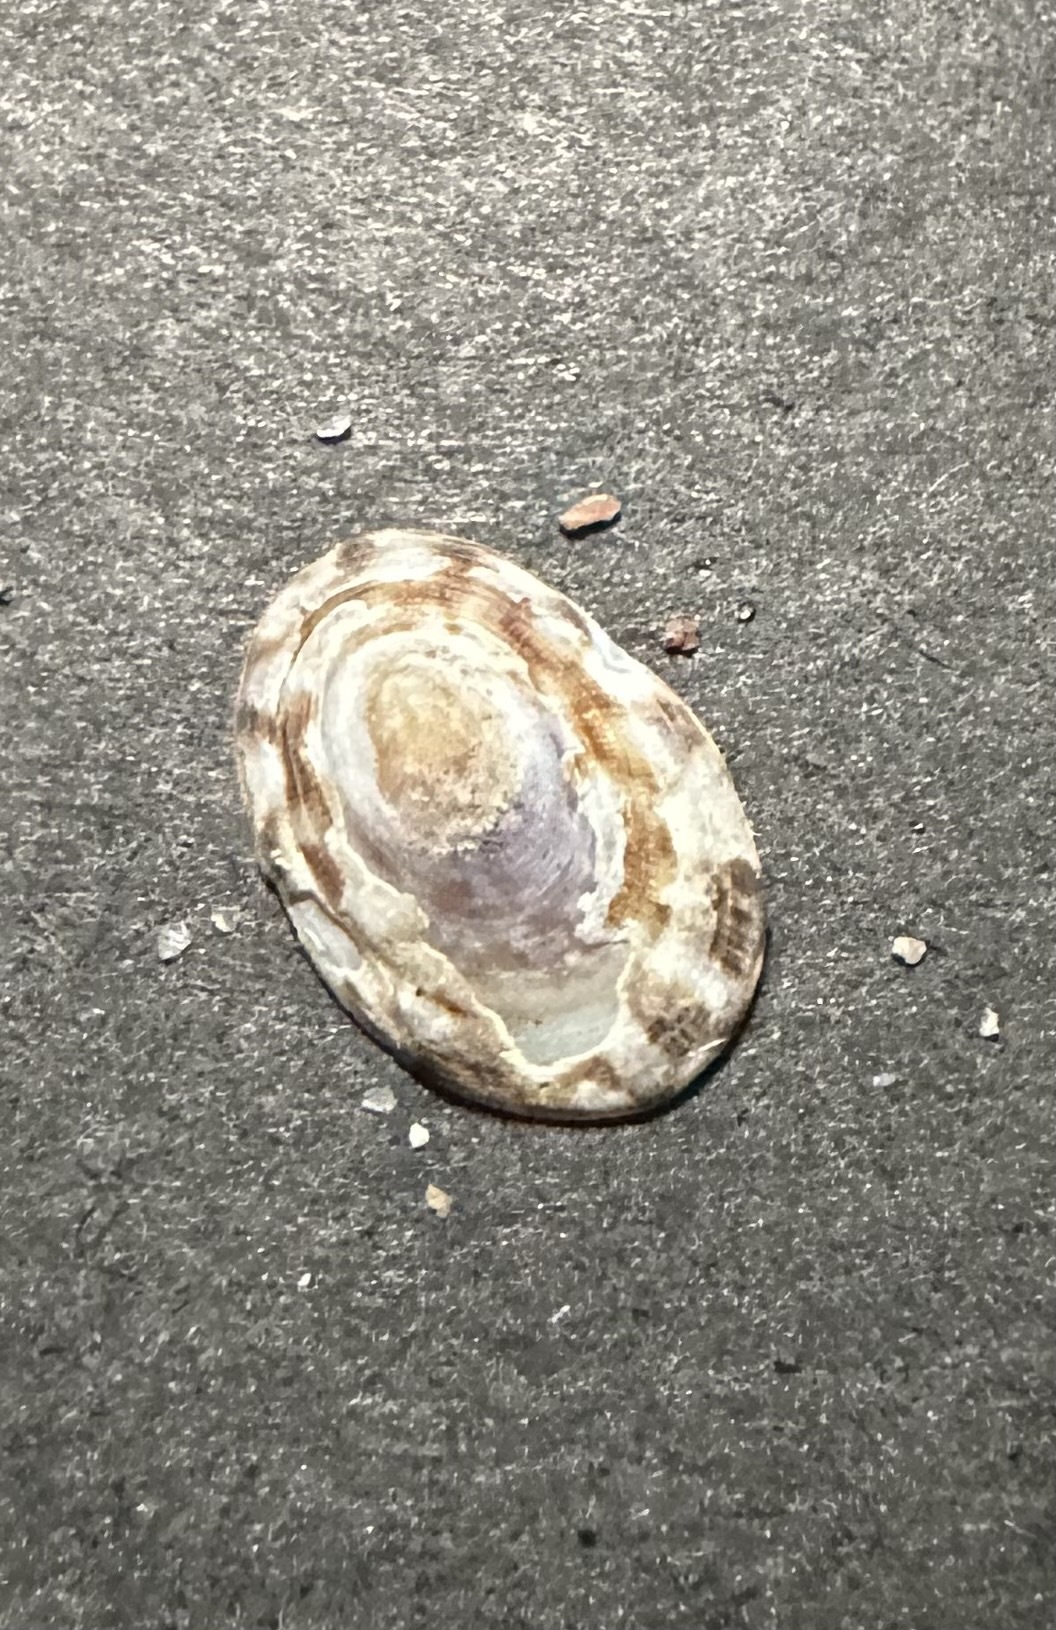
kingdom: Animalia
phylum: Mollusca
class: Gastropoda
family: Lottiidae
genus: Testudinalia
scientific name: Testudinalia testudinalis
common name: Common tortoiseshell limpet
